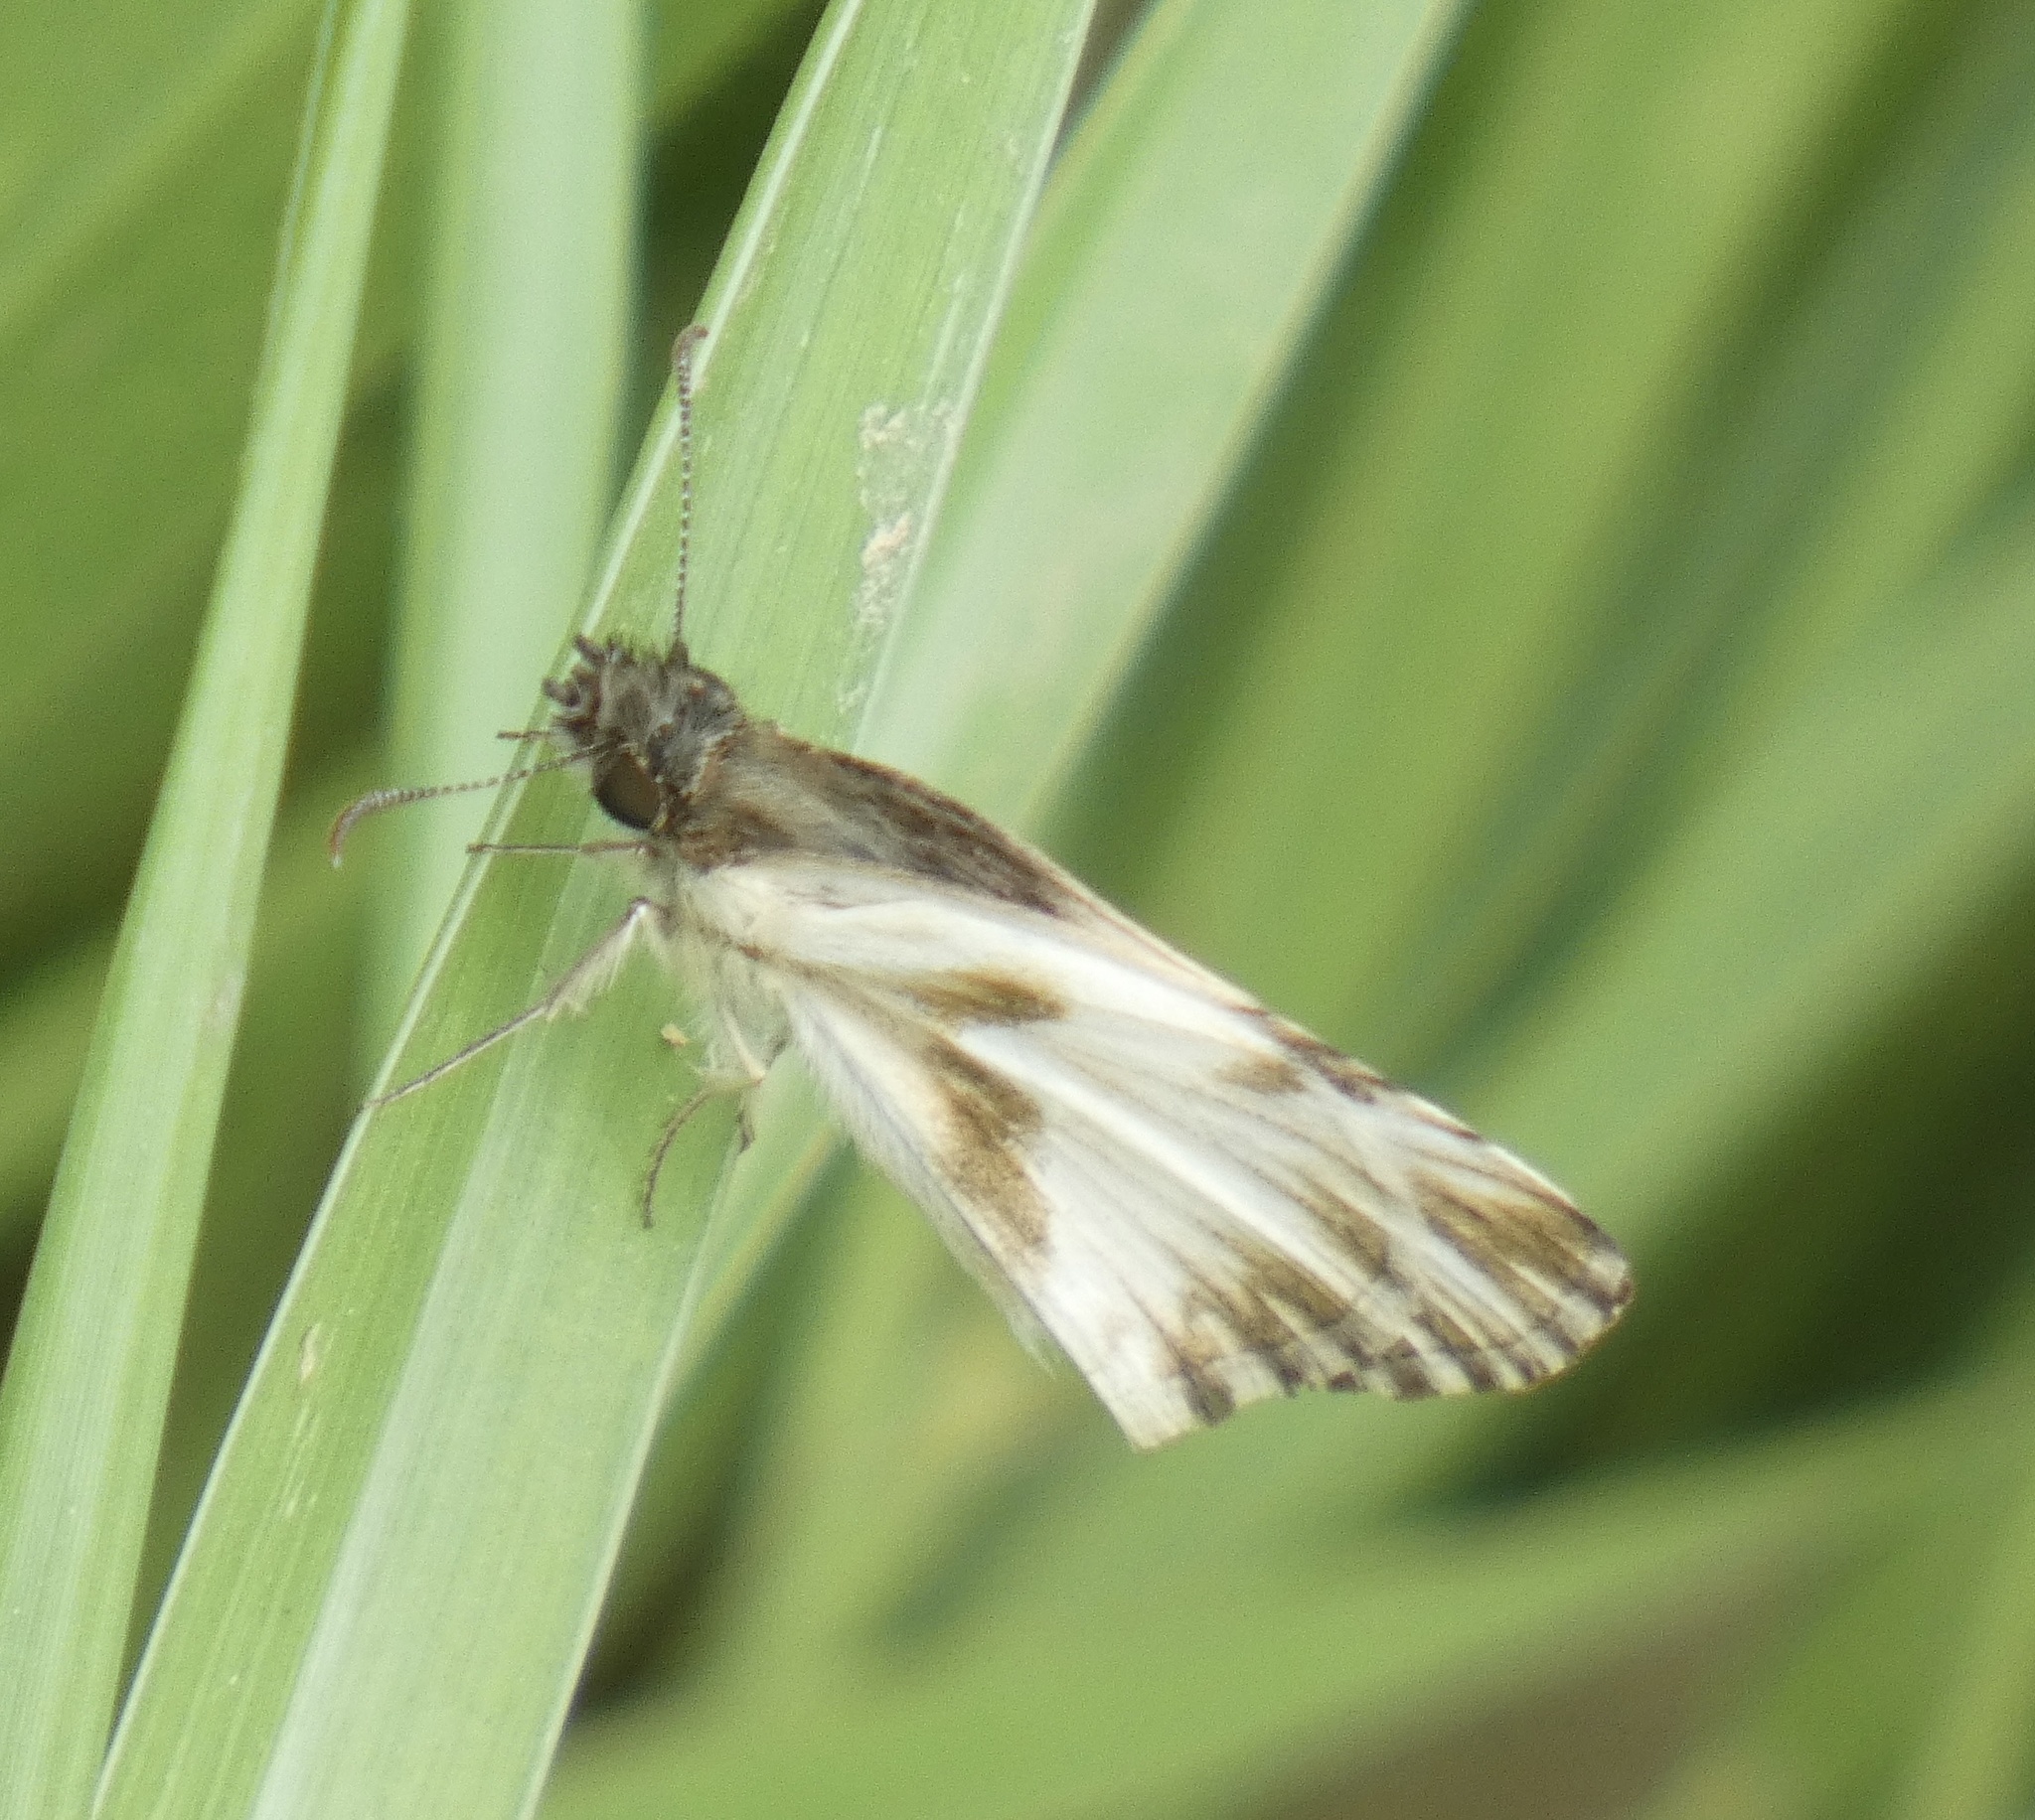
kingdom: Animalia
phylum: Arthropoda
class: Insecta
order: Lepidoptera
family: Hesperiidae
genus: Heliopetes
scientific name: Heliopetes omrina
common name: Stained white-skipper
